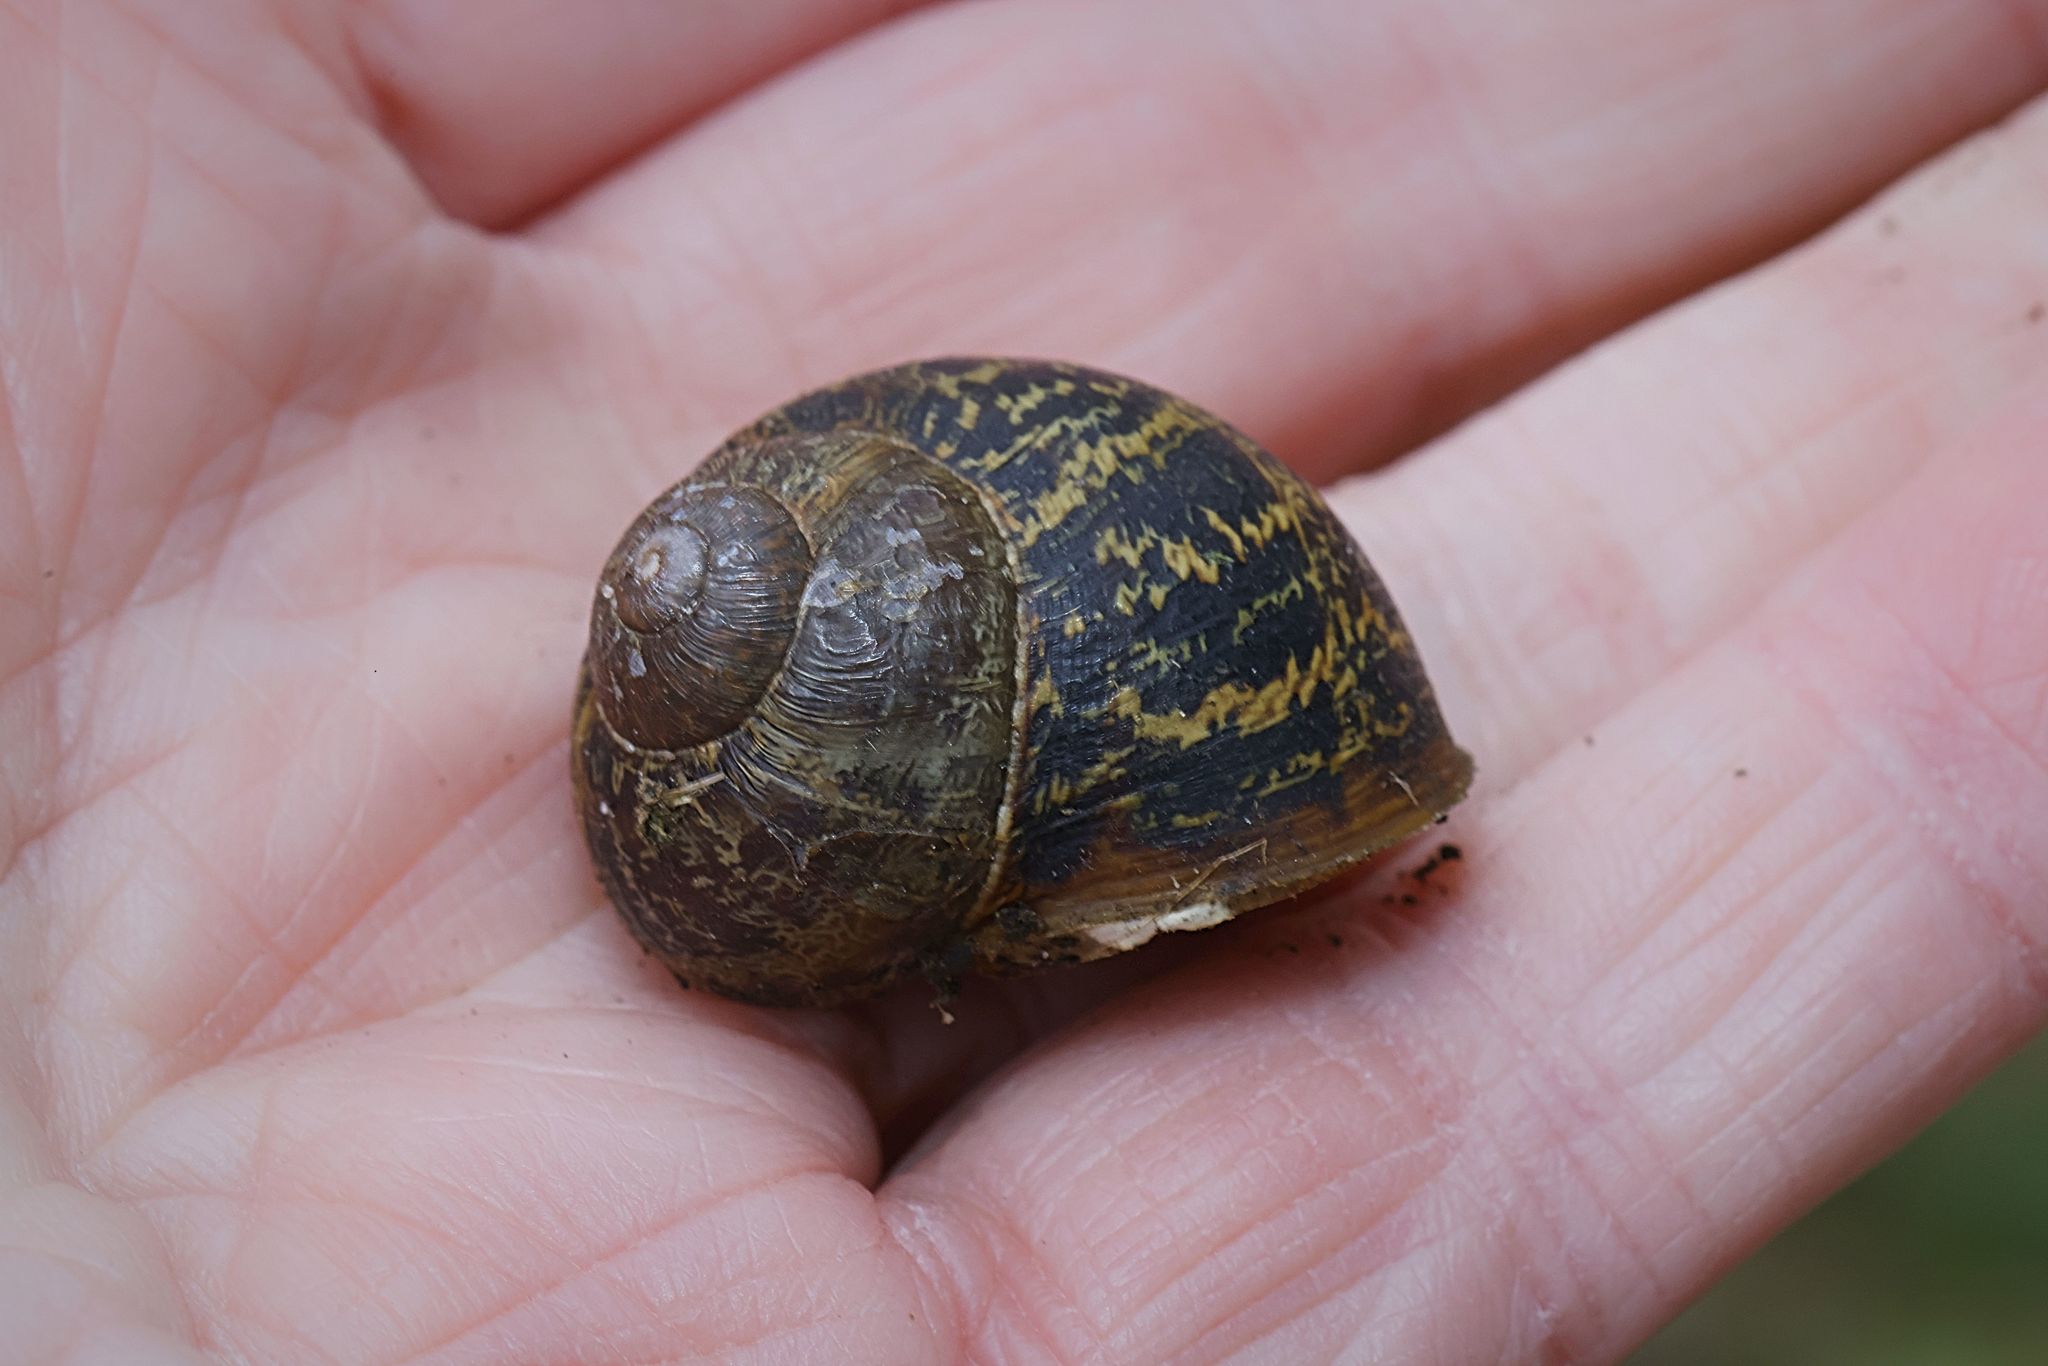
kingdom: Animalia
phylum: Mollusca
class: Gastropoda
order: Stylommatophora
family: Helicidae
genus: Cornu
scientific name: Cornu aspersum
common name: Brown garden snail
